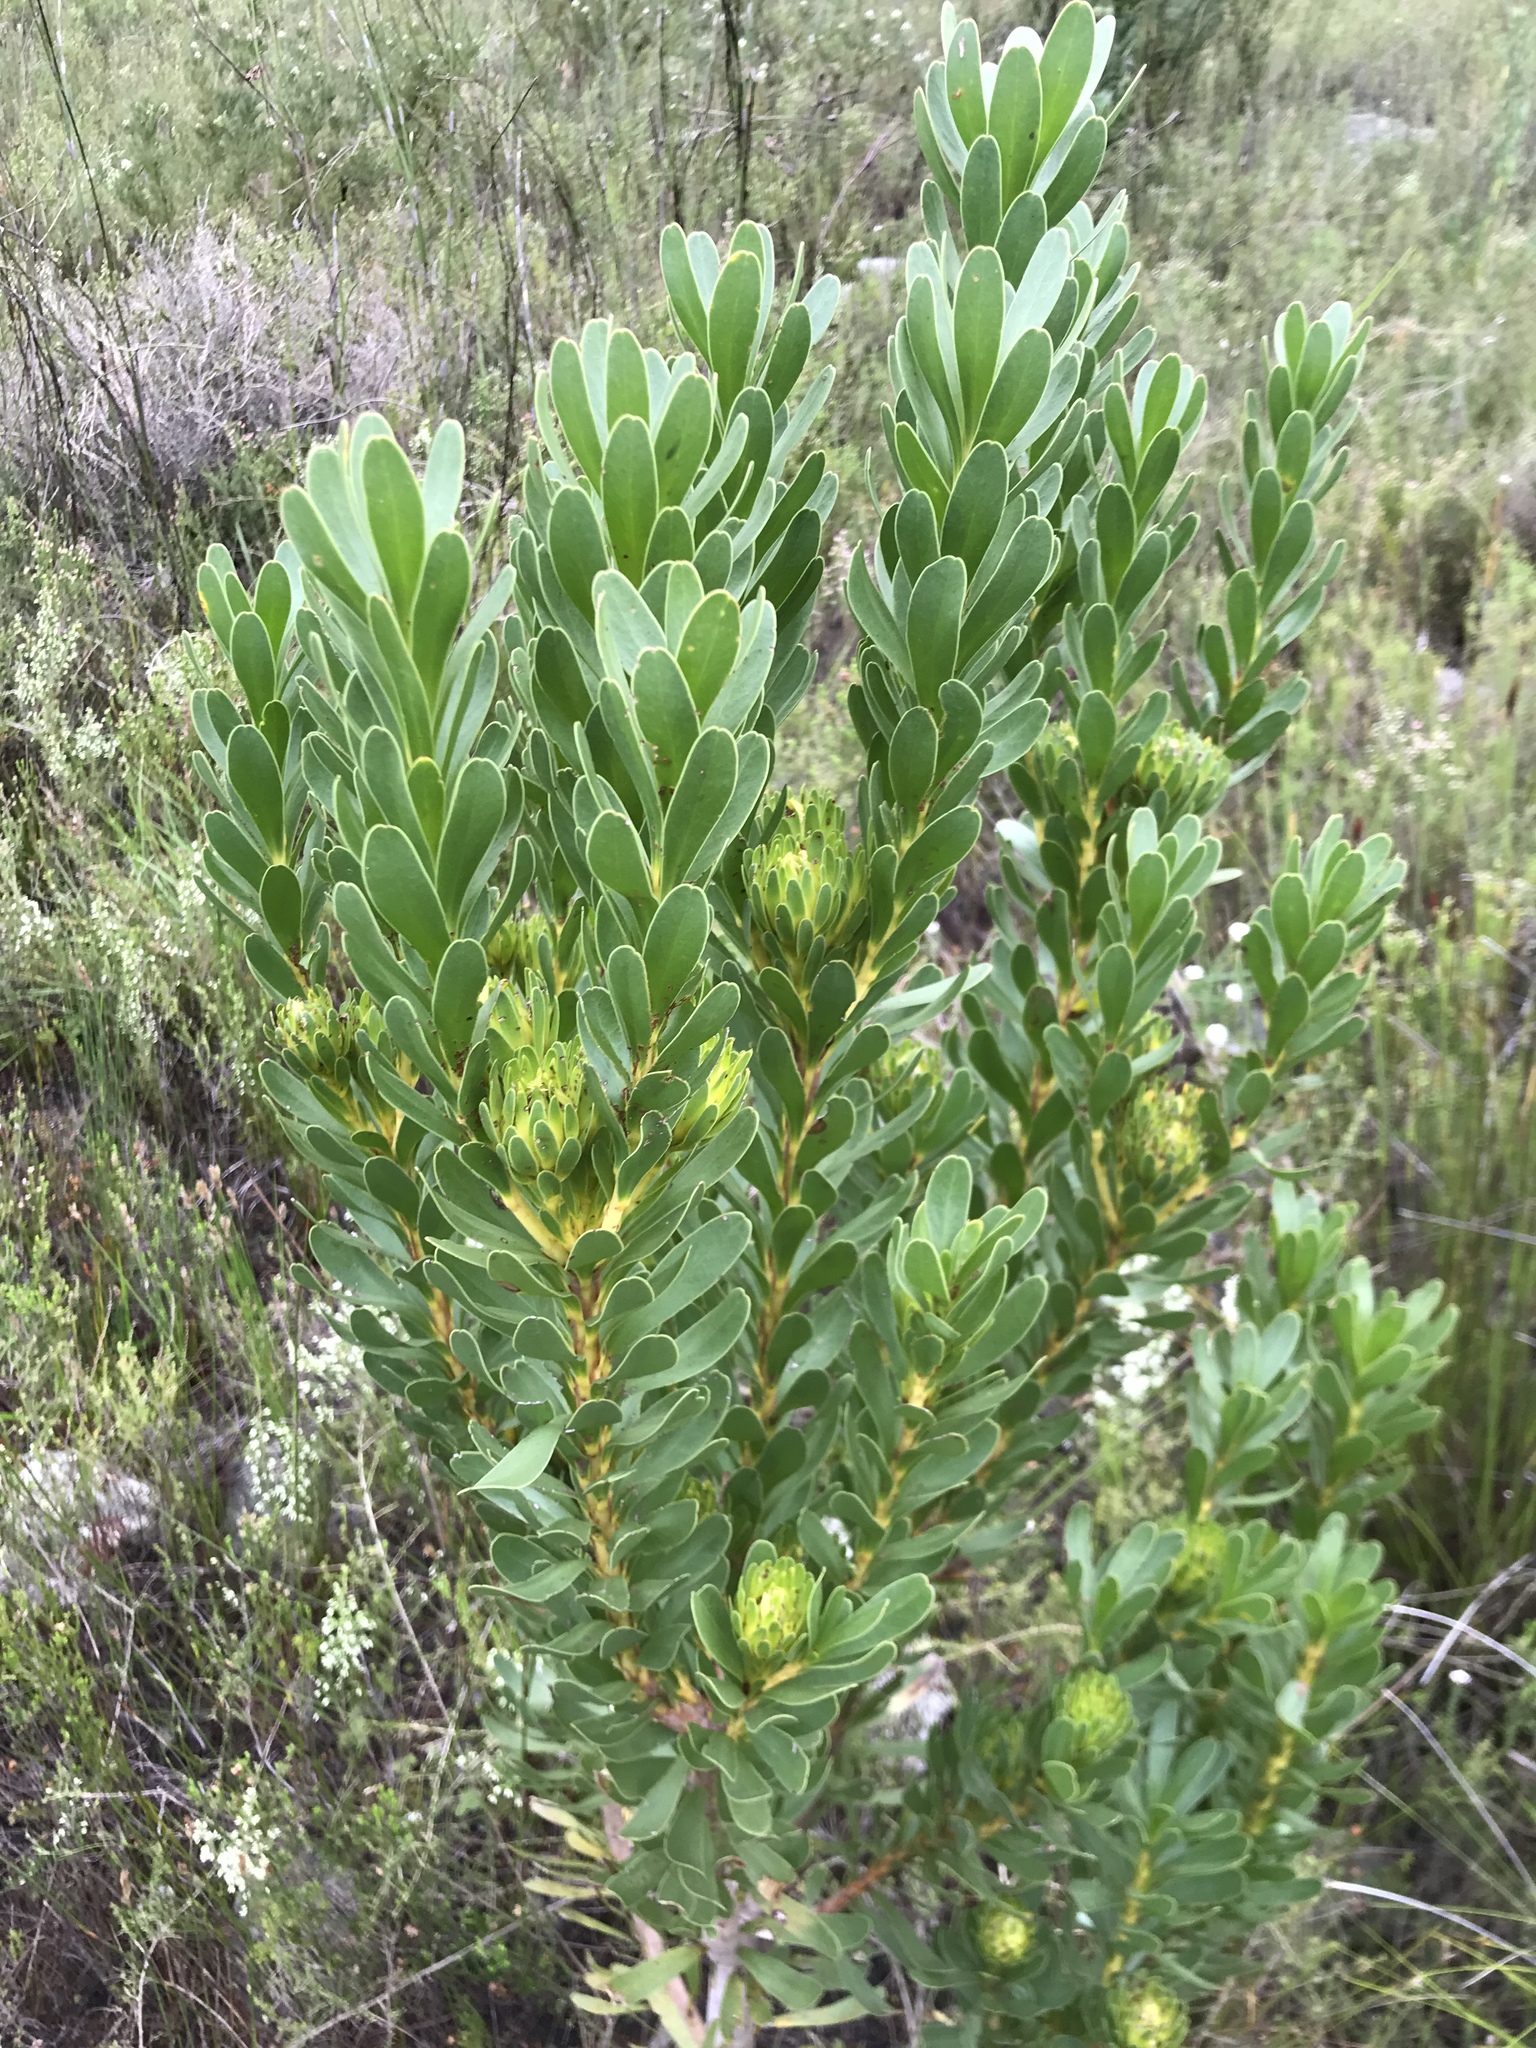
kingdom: Plantae
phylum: Tracheophyta
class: Magnoliopsida
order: Proteales
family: Proteaceae
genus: Aulax
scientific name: Aulax umbellata
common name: Broad-leaf featherbush
